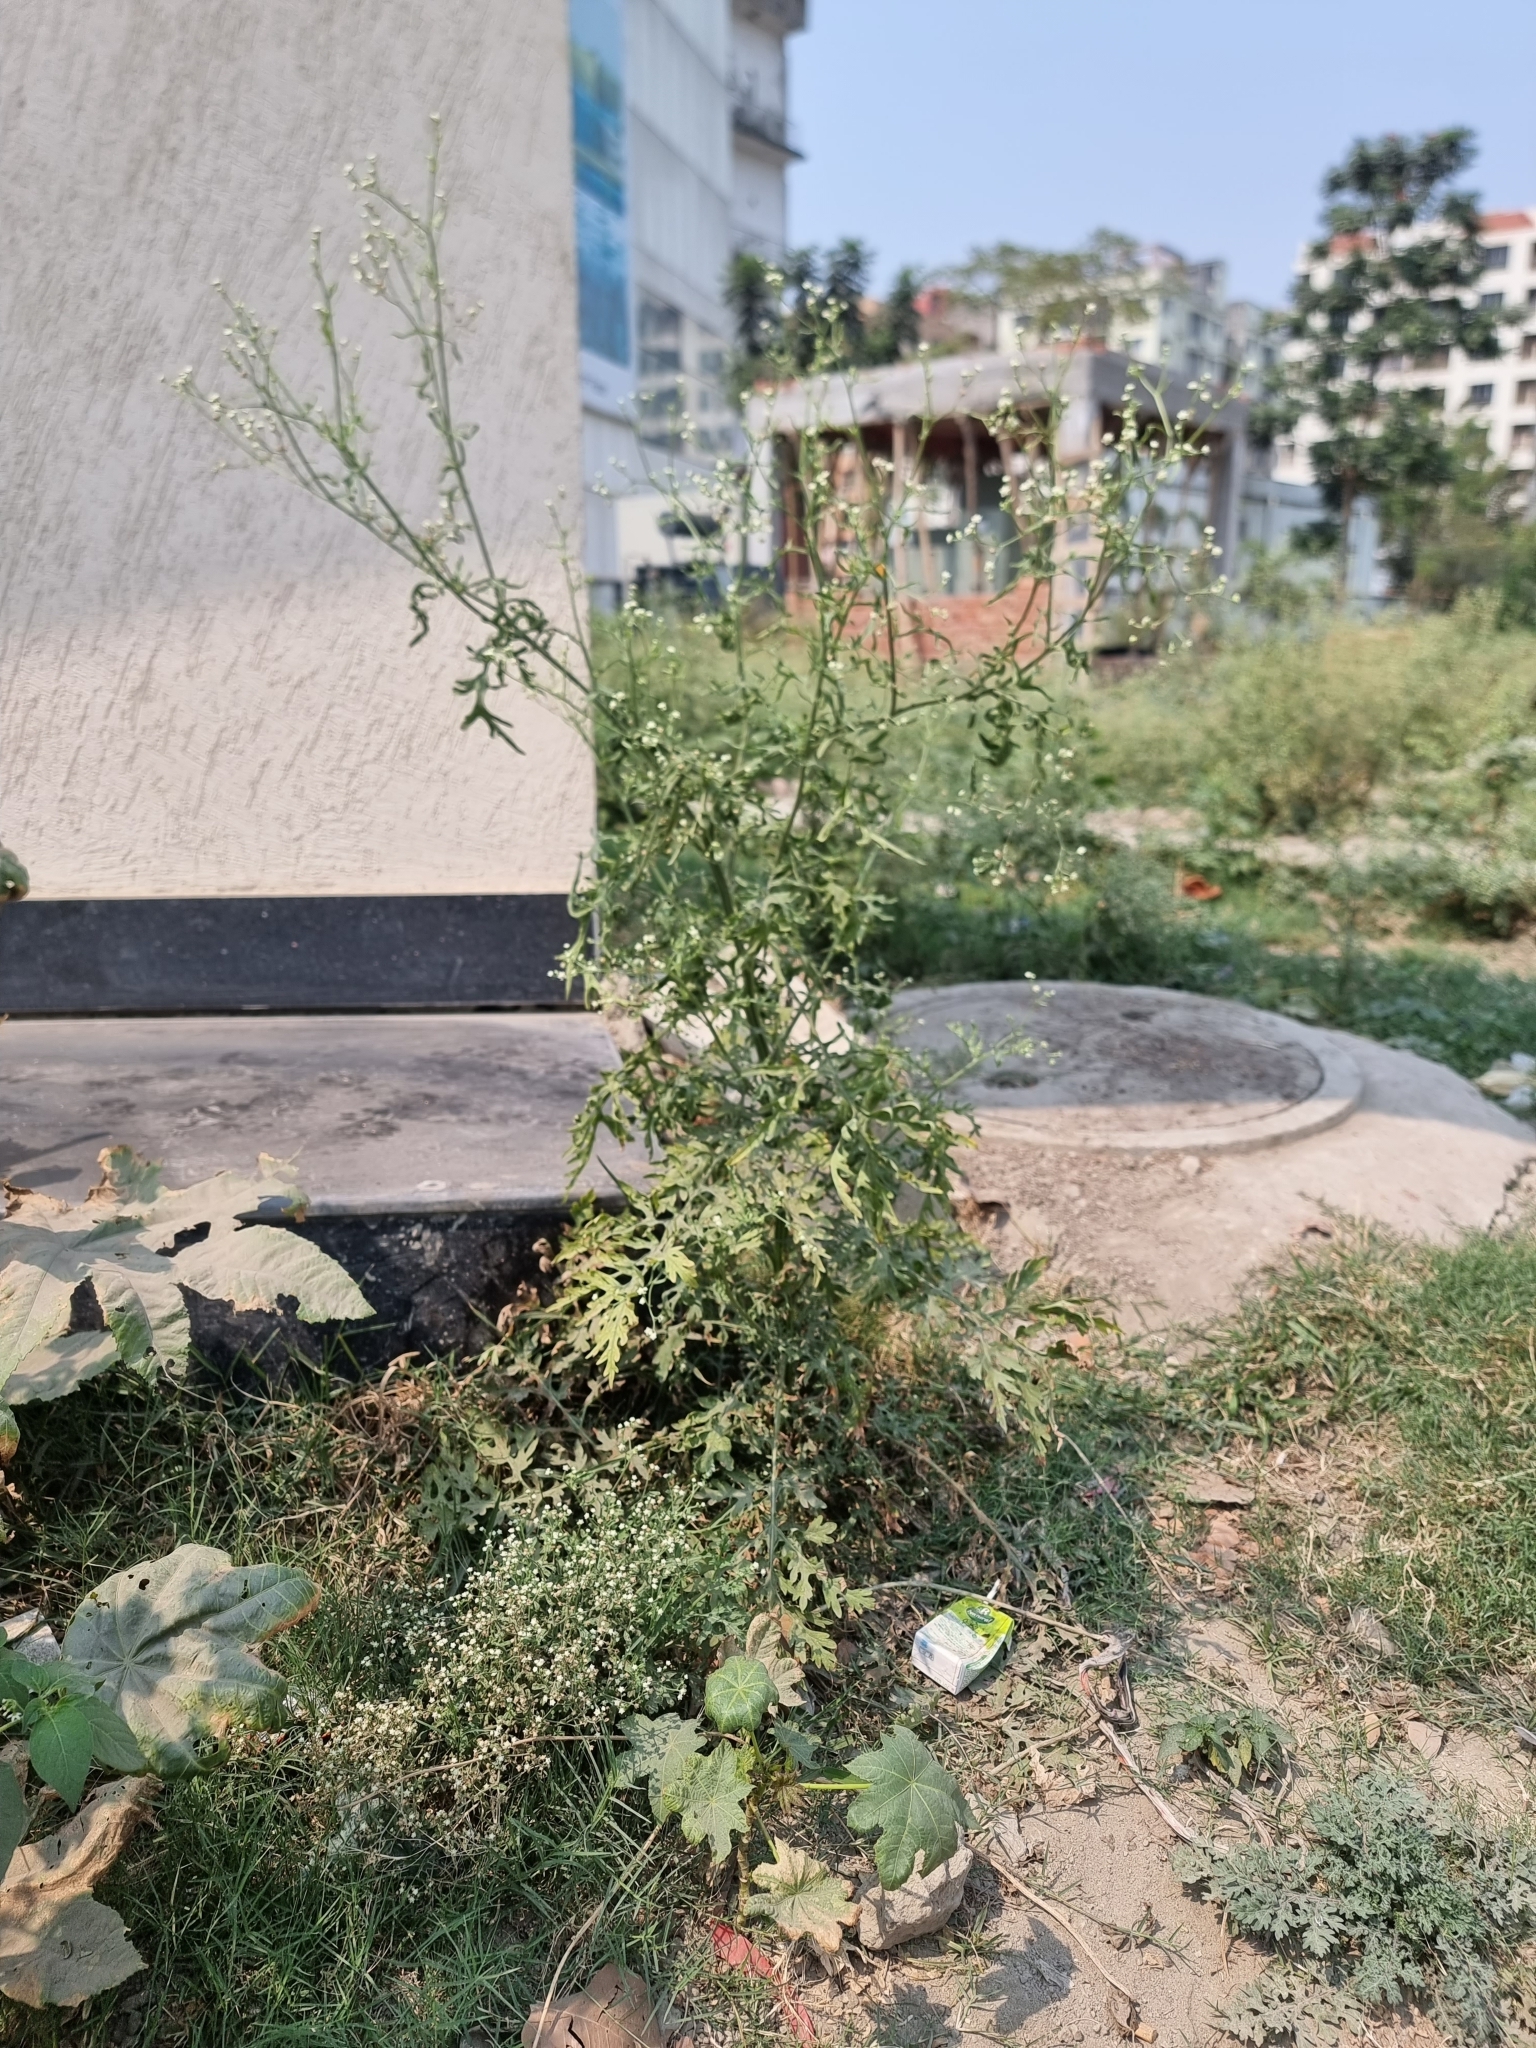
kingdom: Plantae
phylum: Tracheophyta
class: Magnoliopsida
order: Asterales
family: Asteraceae
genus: Parthenium
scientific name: Parthenium hysterophorus
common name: Santa maria feverfew
